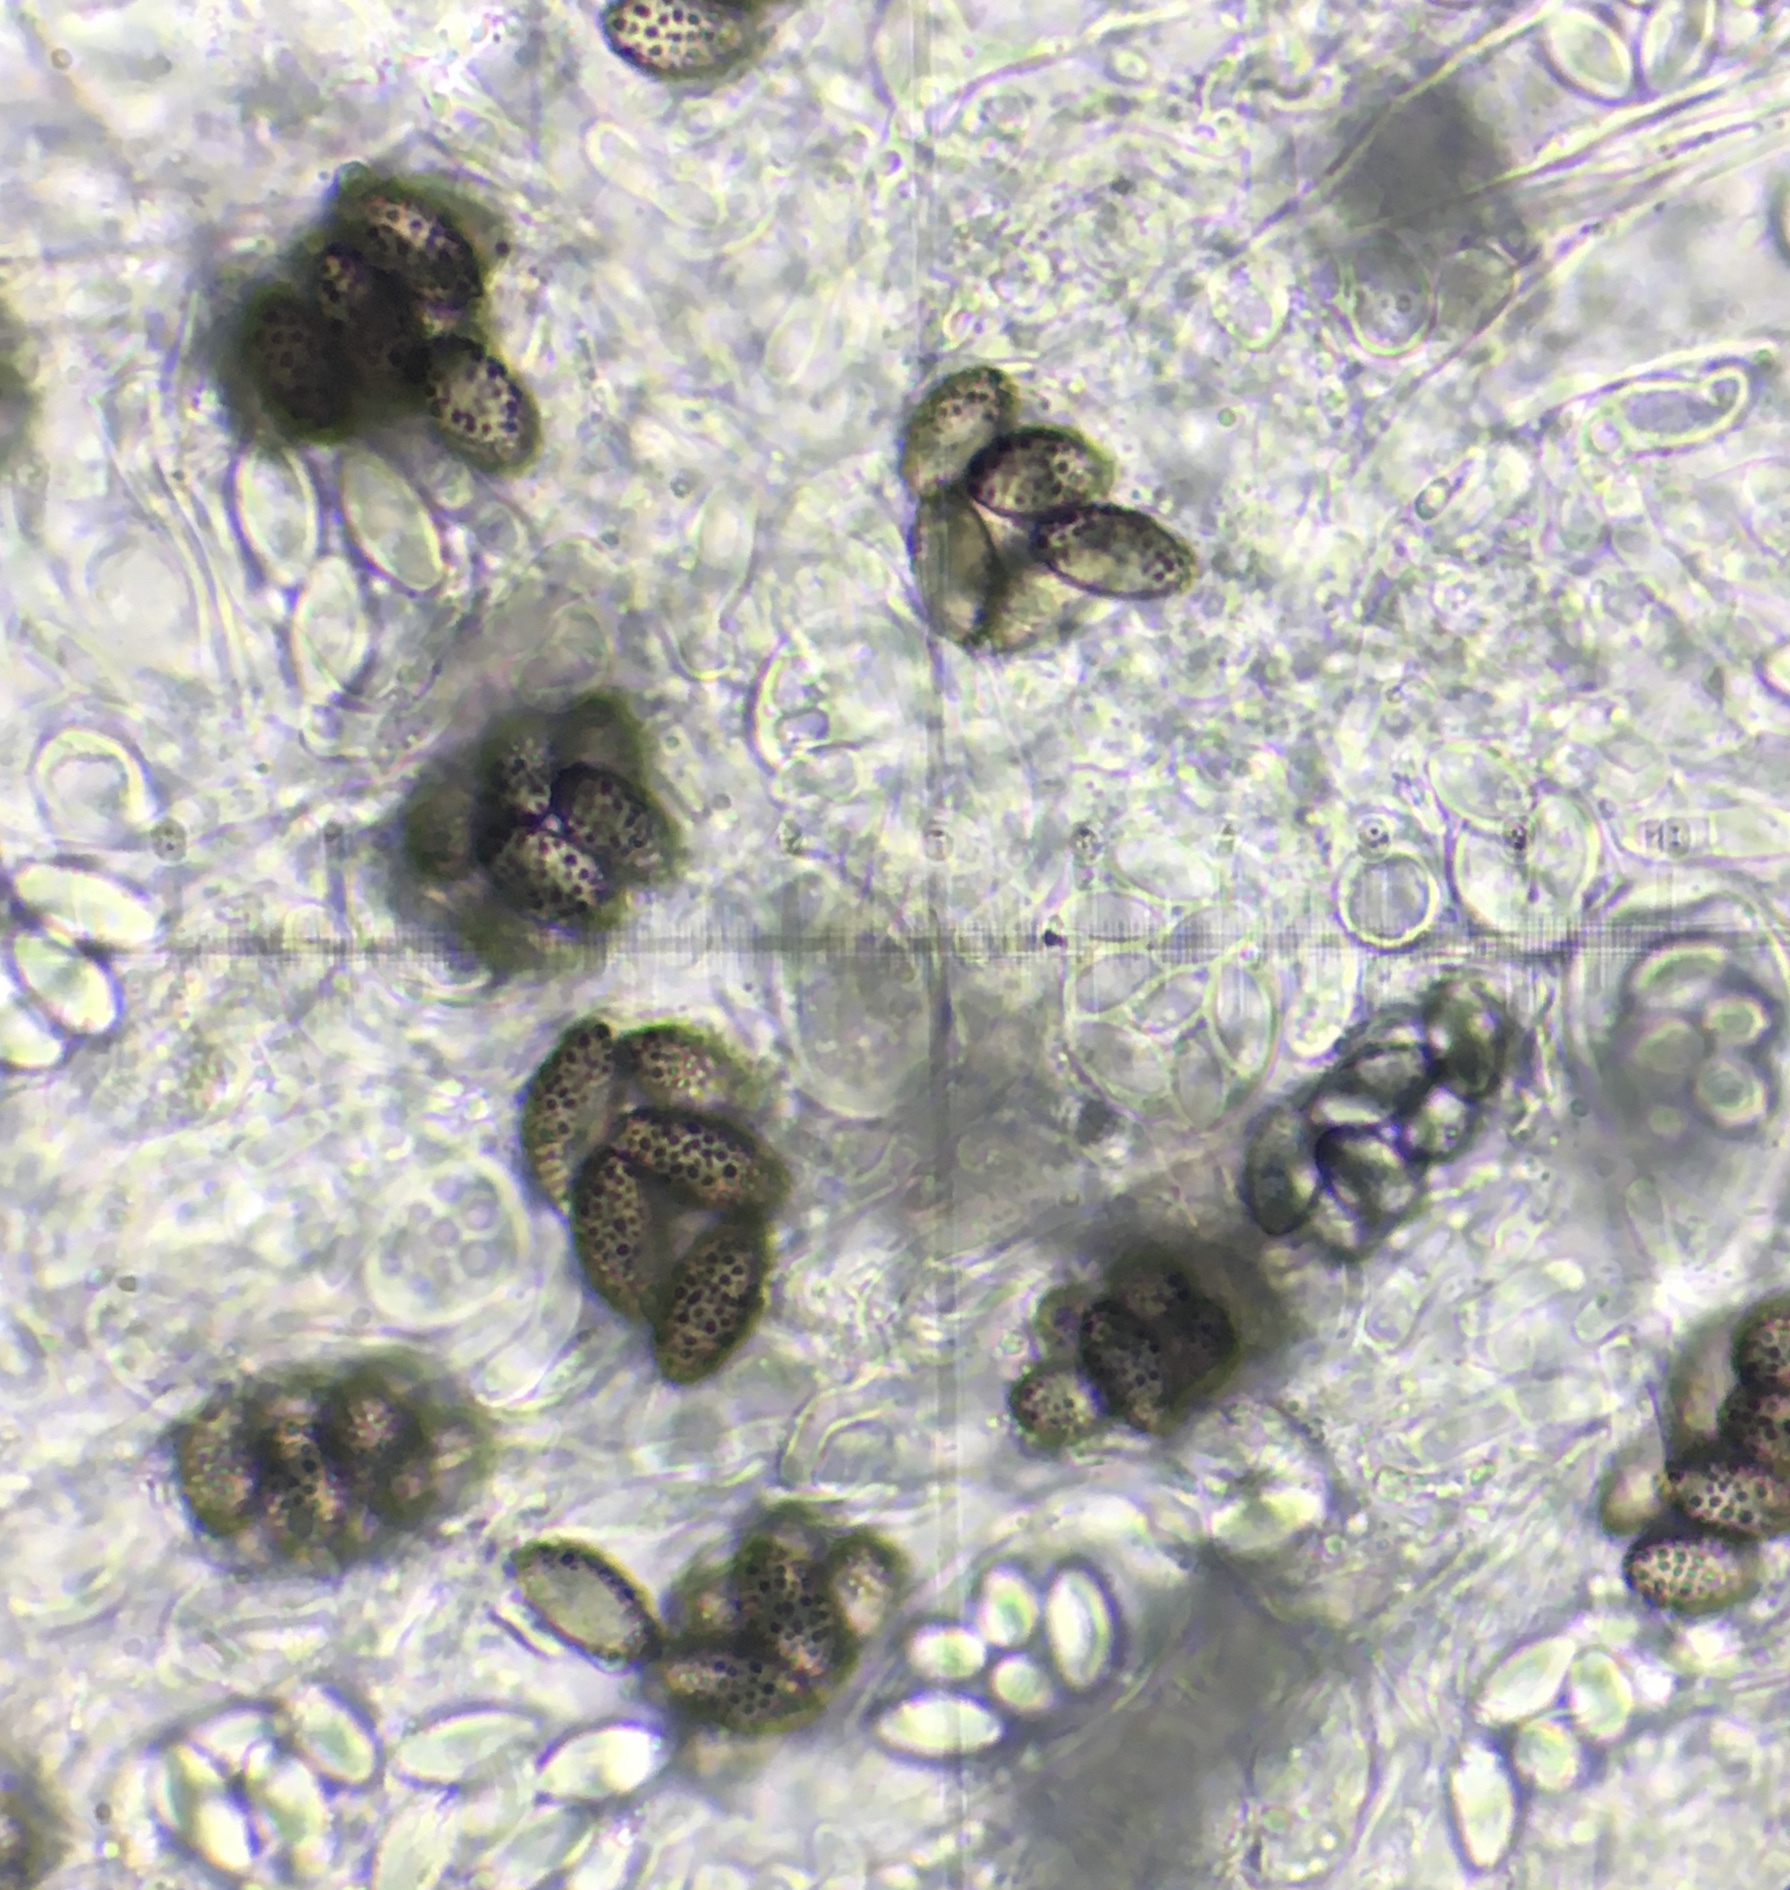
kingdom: Fungi
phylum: Ascomycota
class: Pezizomycetes
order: Pezizales
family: Ascobolaceae
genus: Saccobolus
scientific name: Saccobolus globuliferellus
